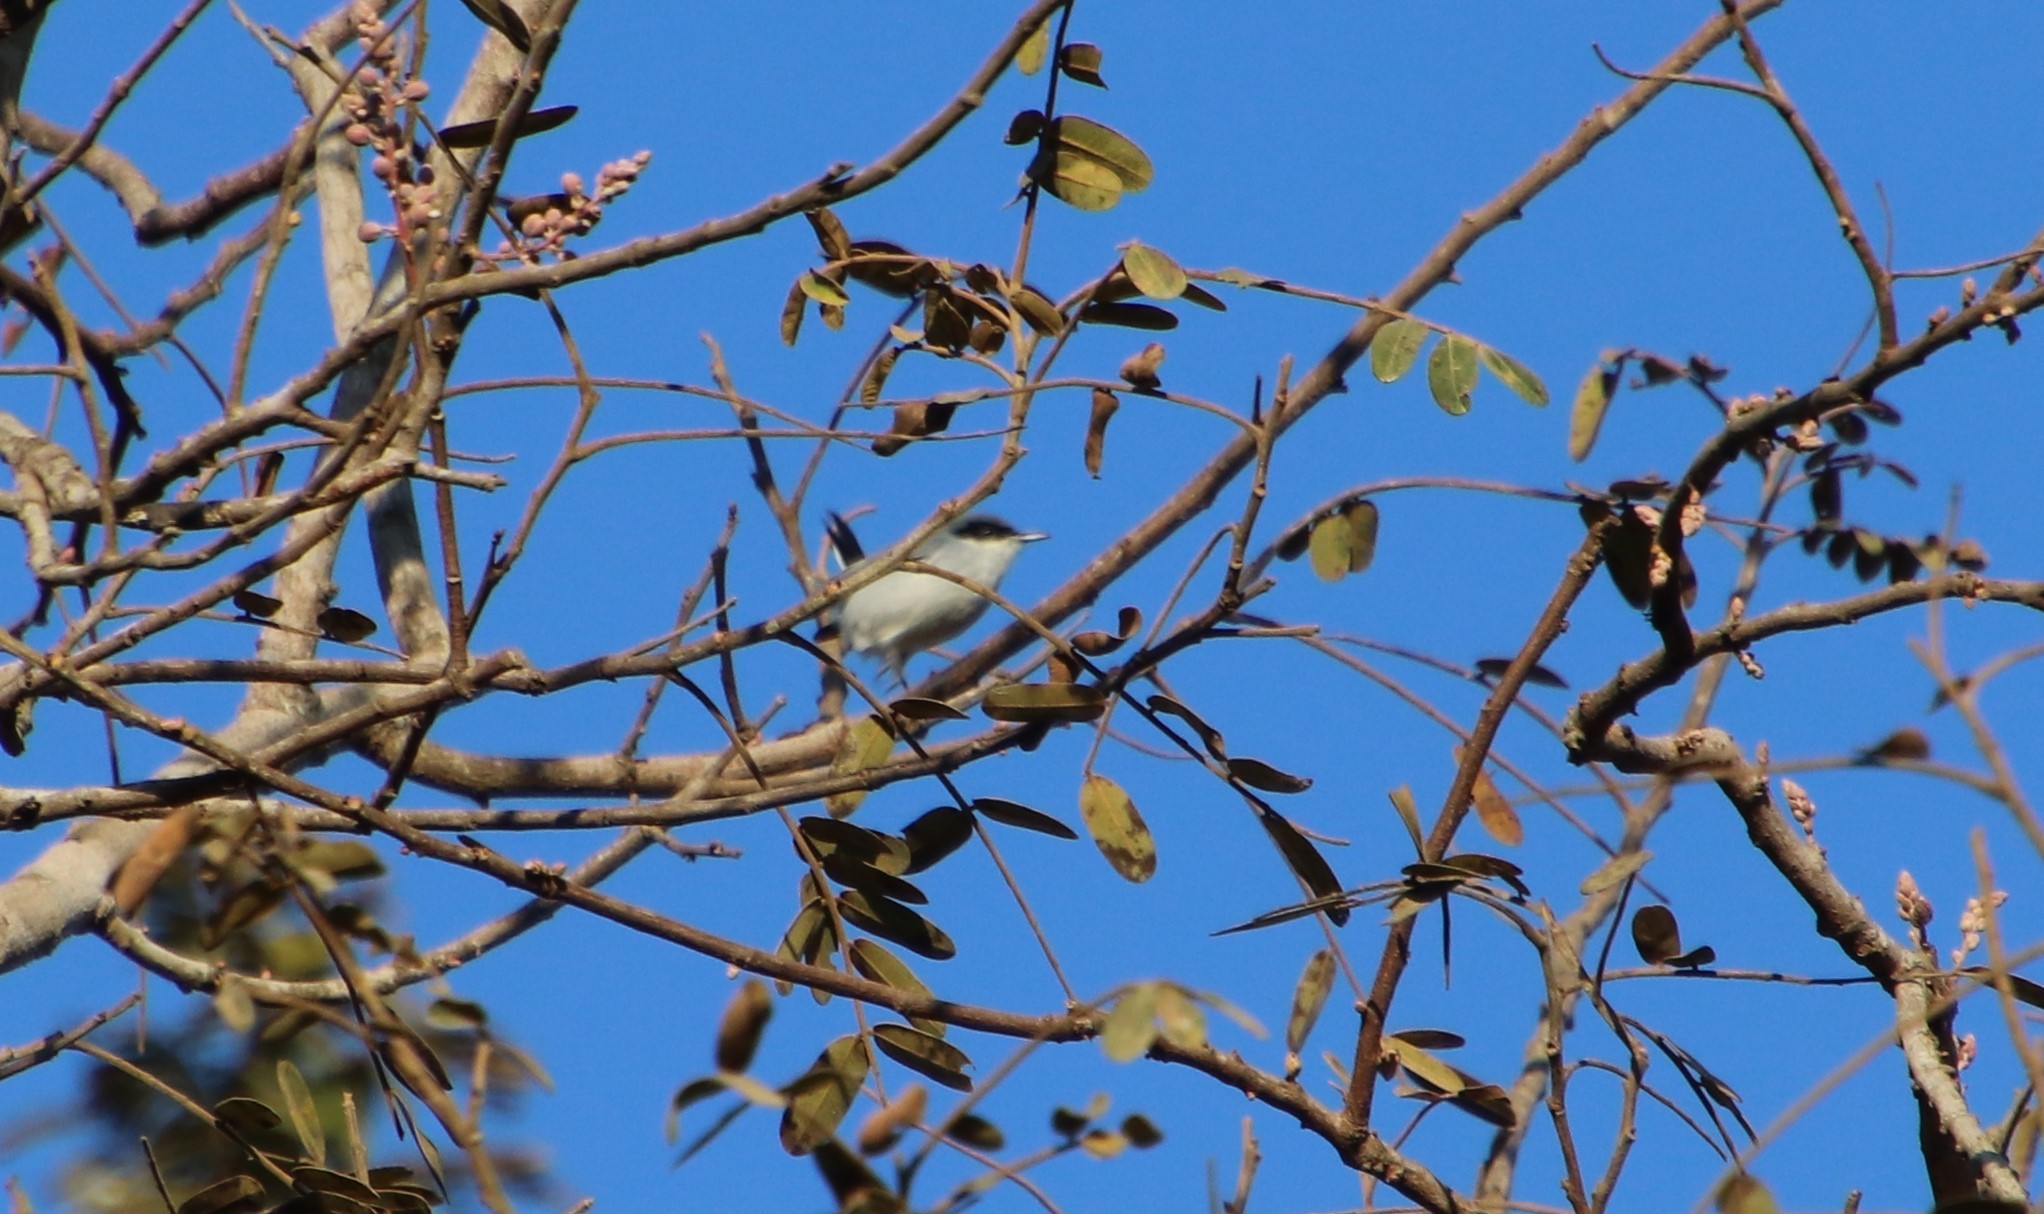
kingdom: Animalia
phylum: Chordata
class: Aves
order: Passeriformes
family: Polioptilidae
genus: Polioptila
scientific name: Polioptila dumicola
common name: Masked gnatcatcher
